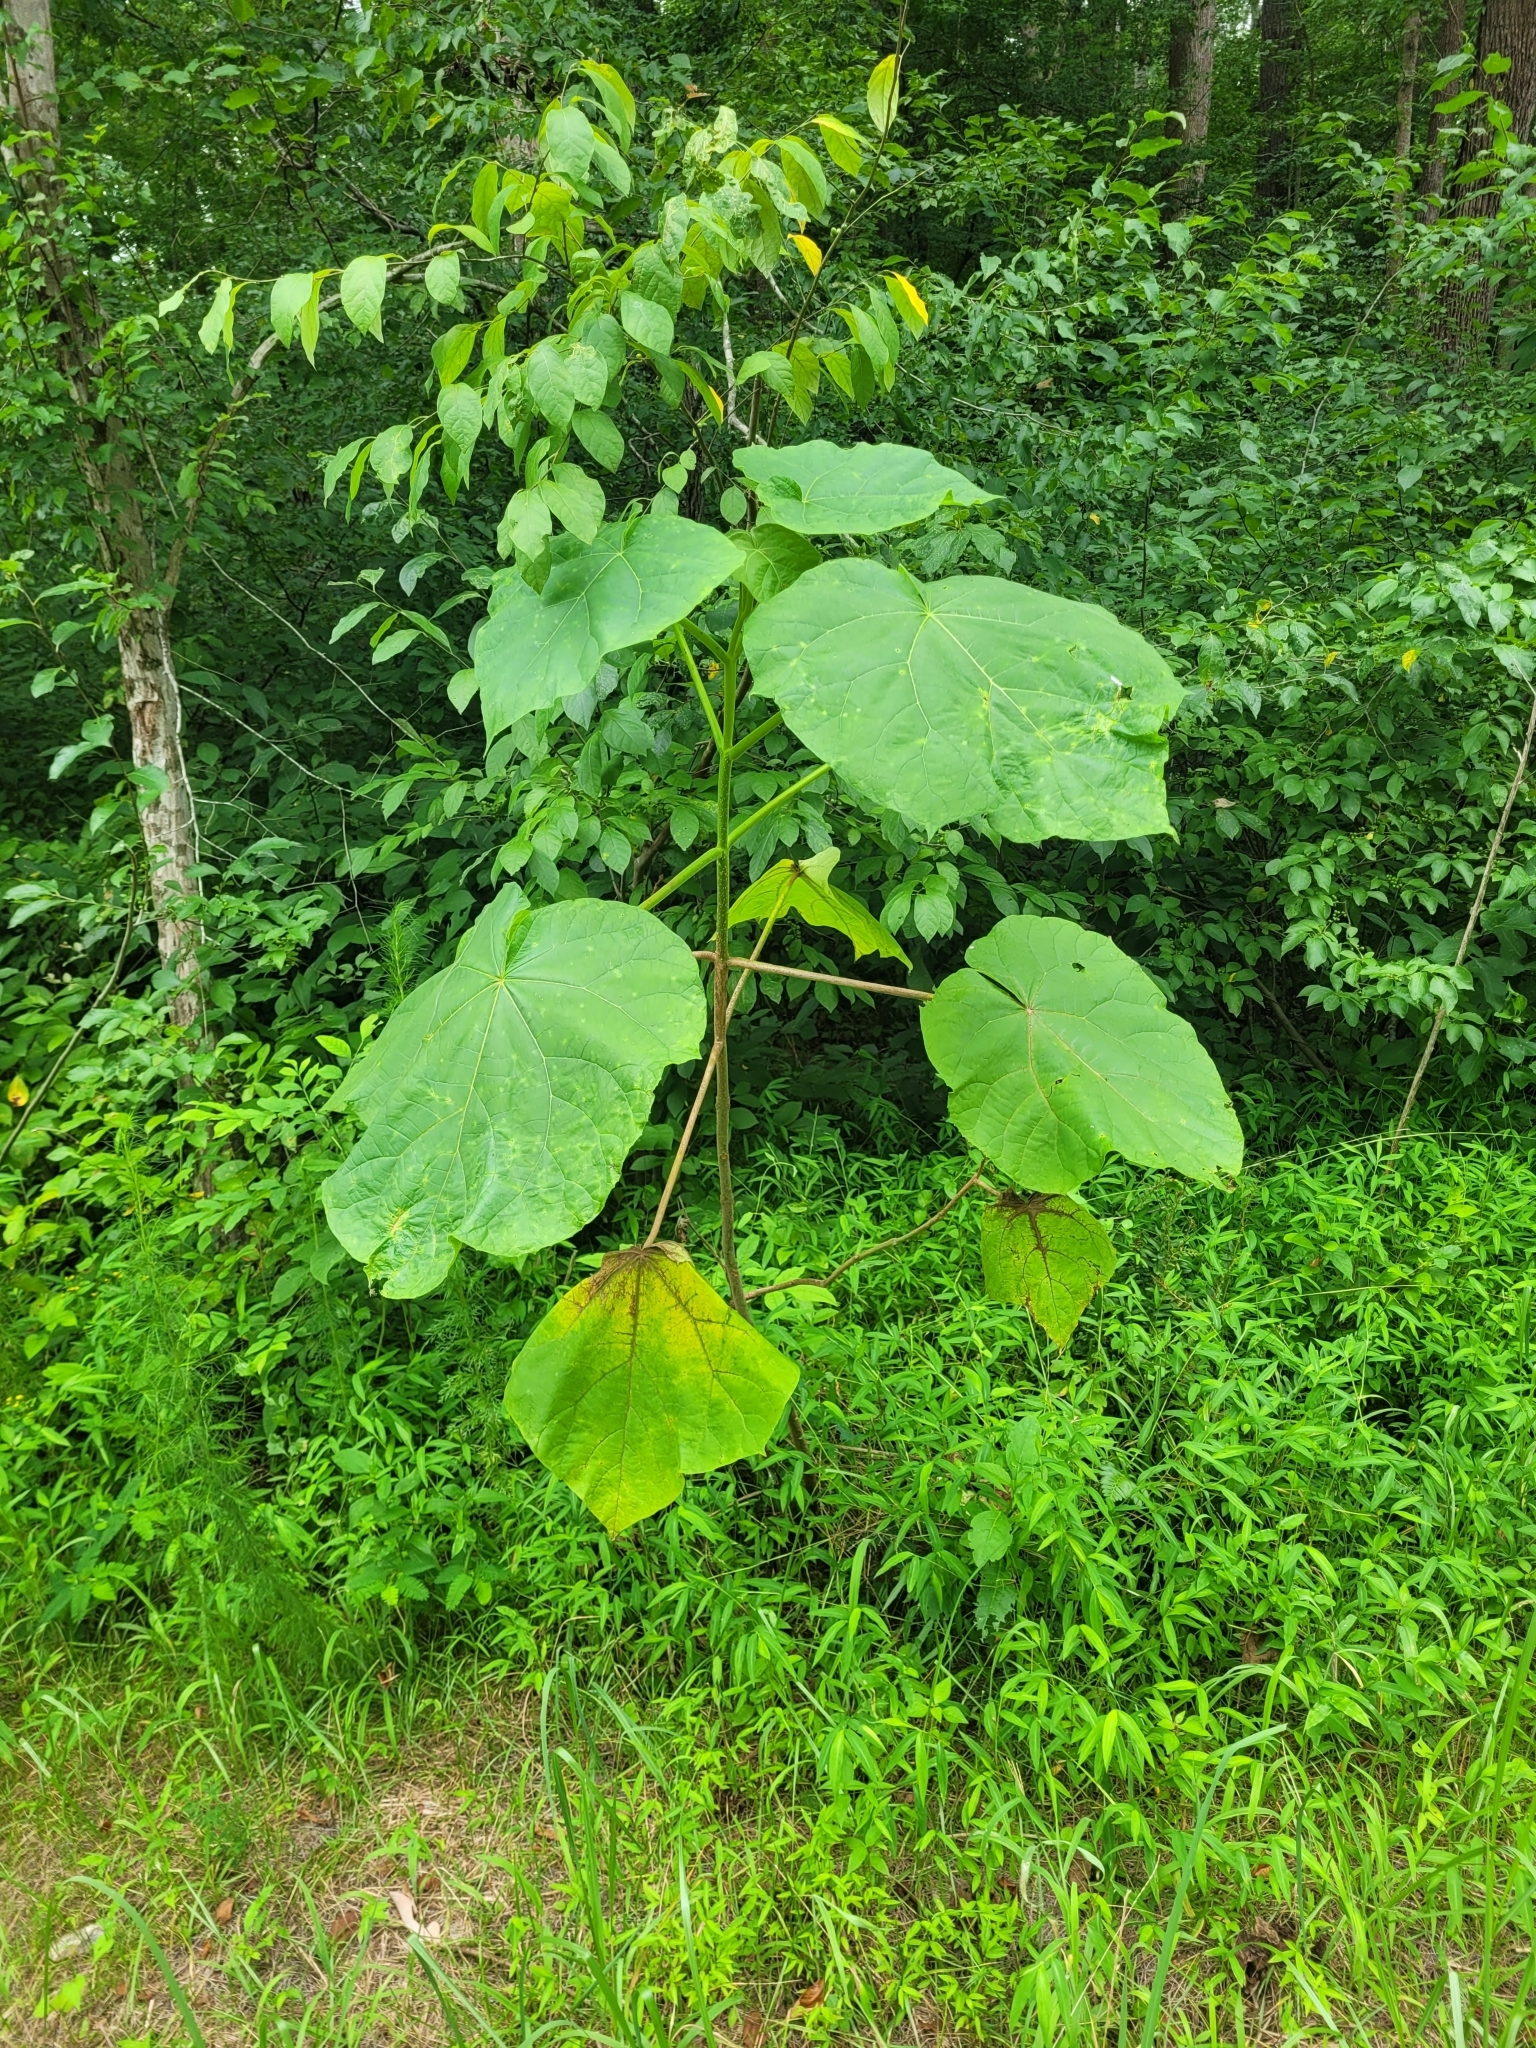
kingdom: Plantae
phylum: Tracheophyta
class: Magnoliopsida
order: Lamiales
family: Paulowniaceae
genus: Paulownia
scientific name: Paulownia tomentosa
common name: Foxglove-tree
